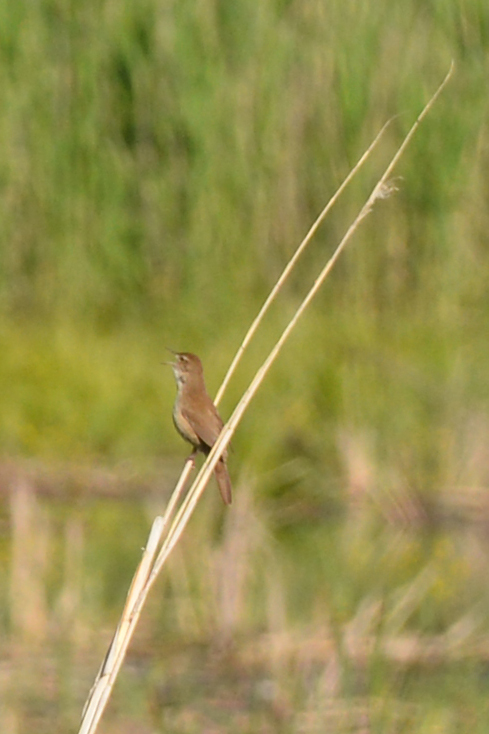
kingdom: Animalia
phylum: Chordata
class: Aves
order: Passeriformes
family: Locustellidae
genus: Locustella
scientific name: Locustella luscinioides
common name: Savi's warbler
